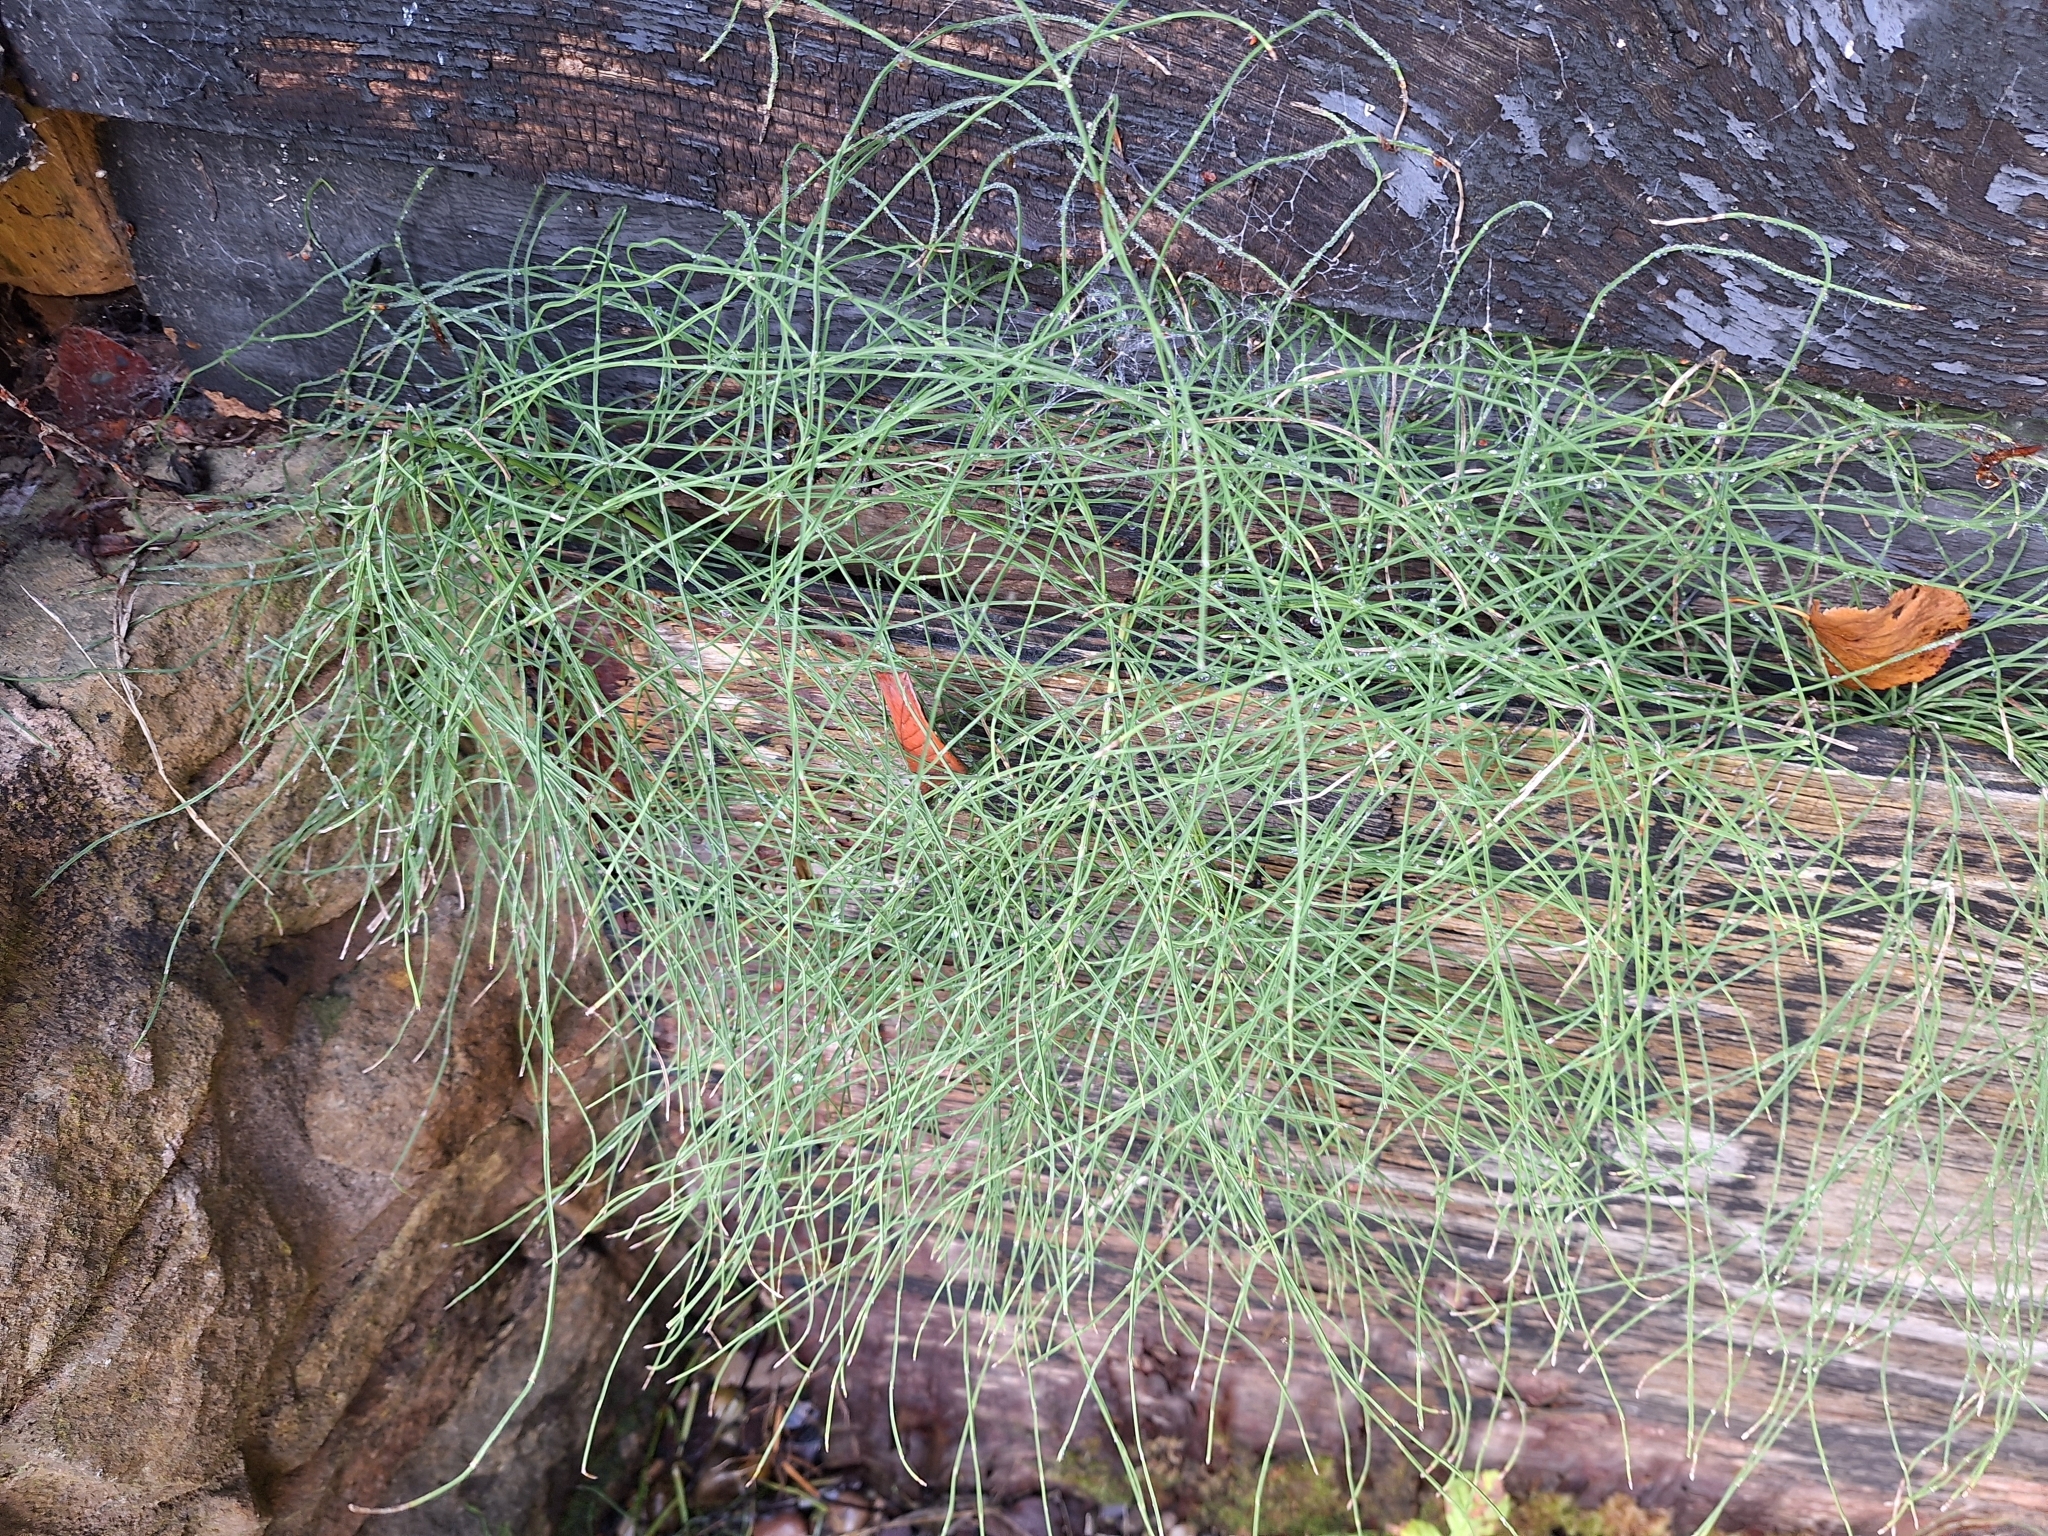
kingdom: Plantae
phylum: Tracheophyta
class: Polypodiopsida
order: Equisetales
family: Equisetaceae
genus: Equisetum
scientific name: Equisetum arvense
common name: Field horsetail
